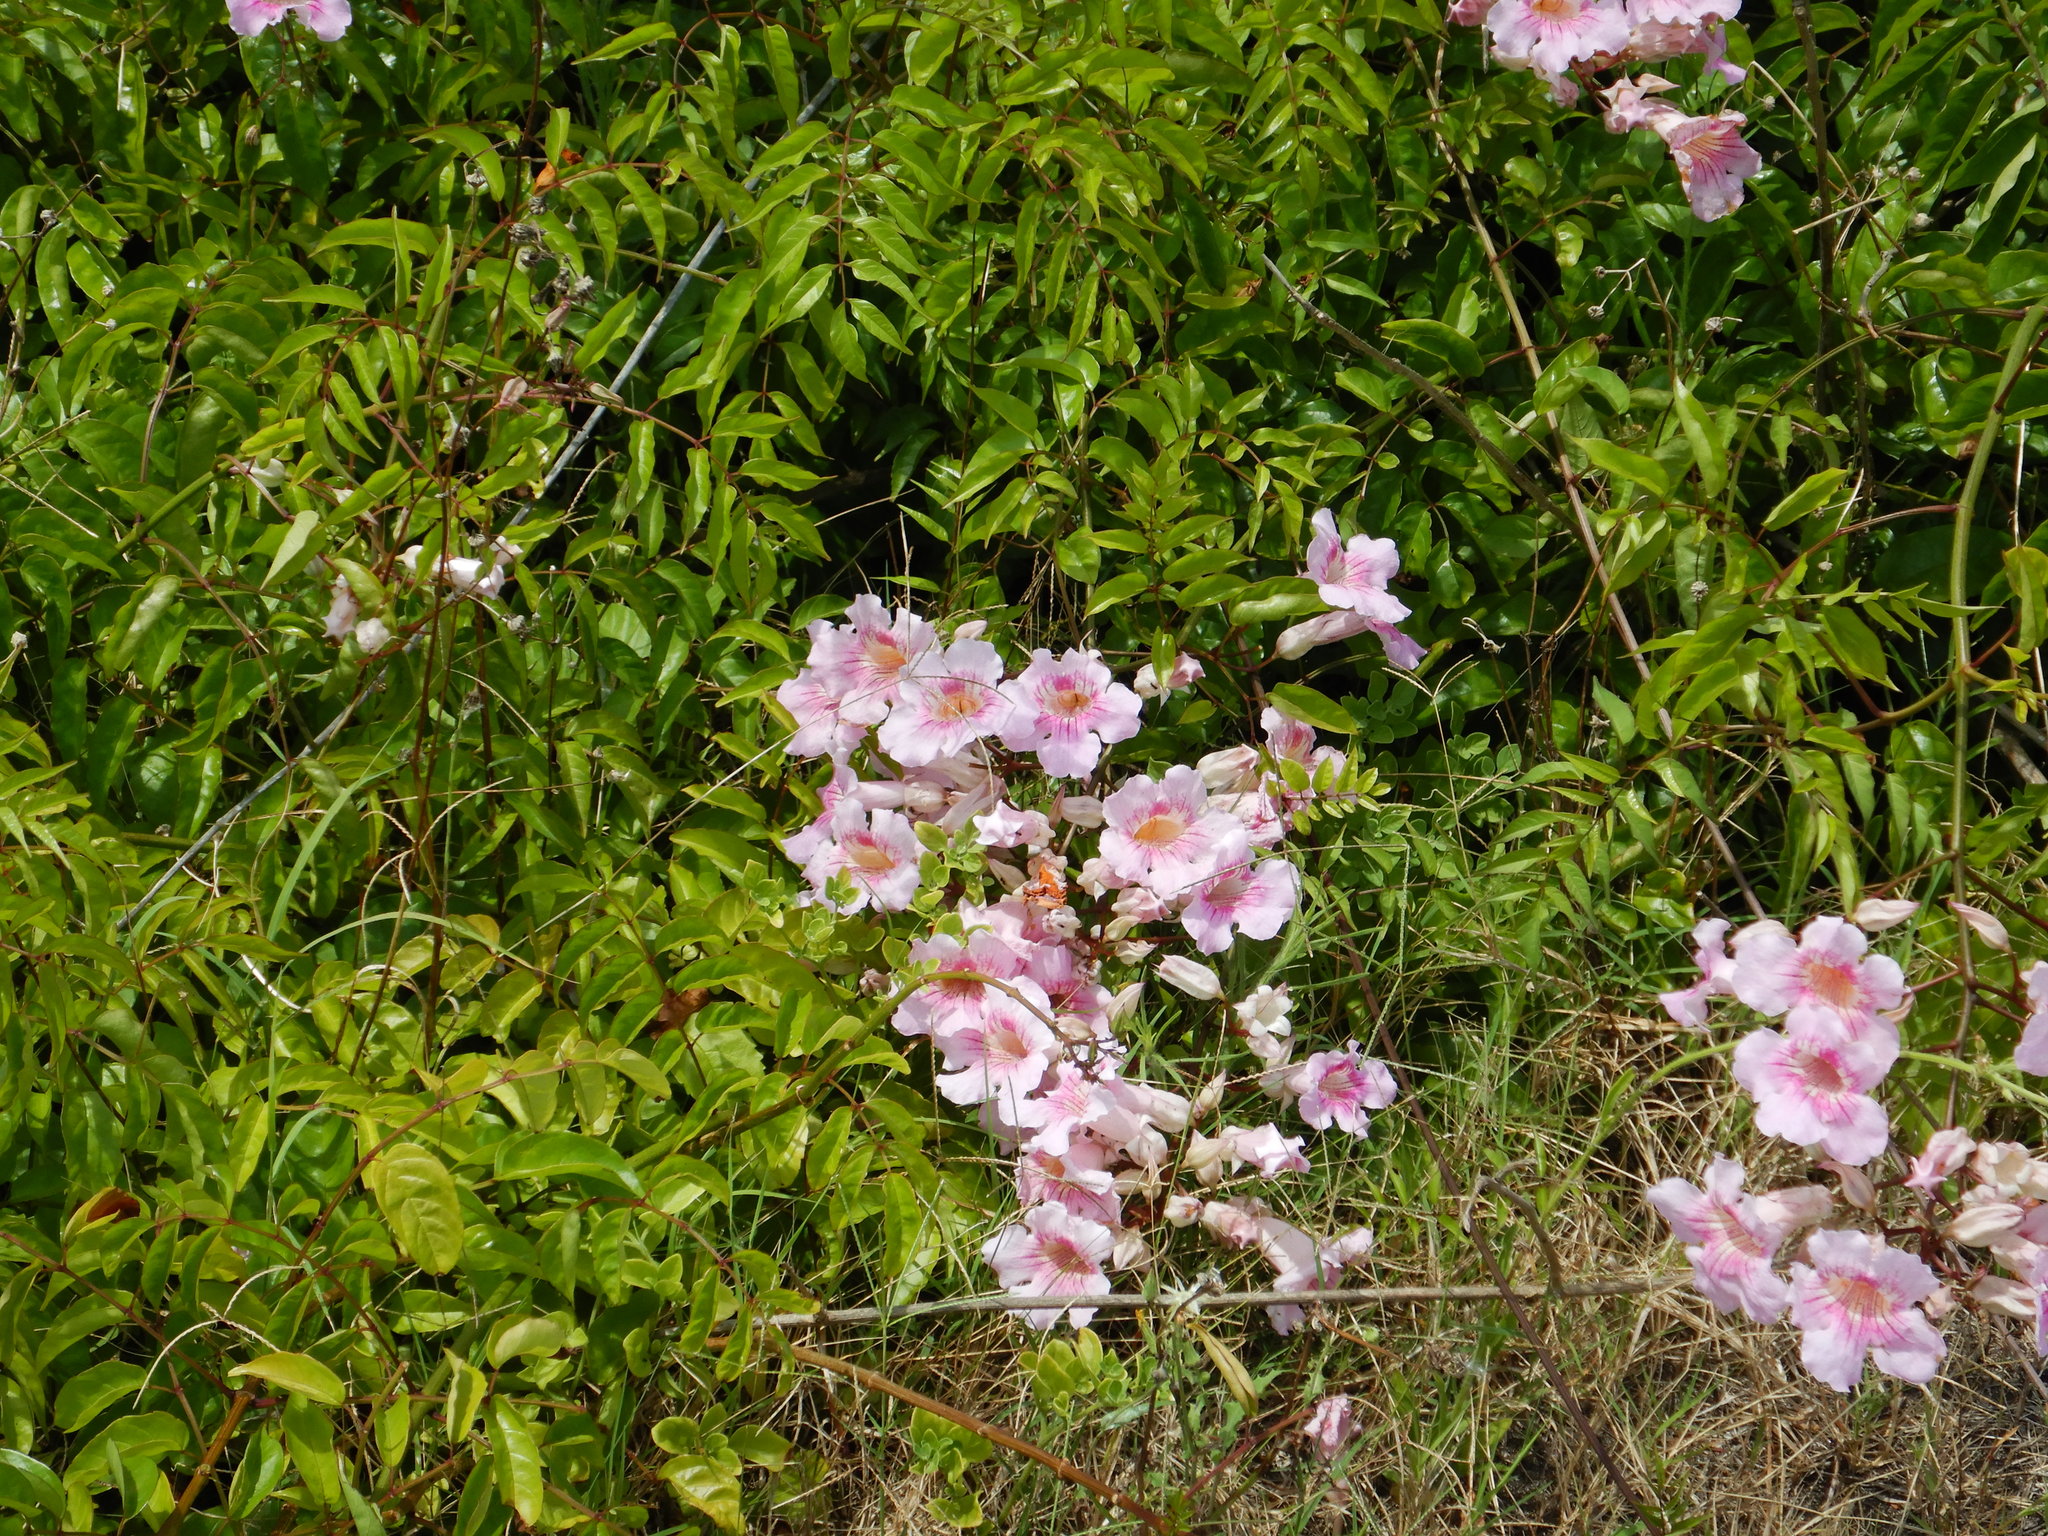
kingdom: Plantae
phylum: Tracheophyta
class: Magnoliopsida
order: Lamiales
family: Bignoniaceae
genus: Podranea
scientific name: Podranea ricasoliana
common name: Zimbabwe creeper
